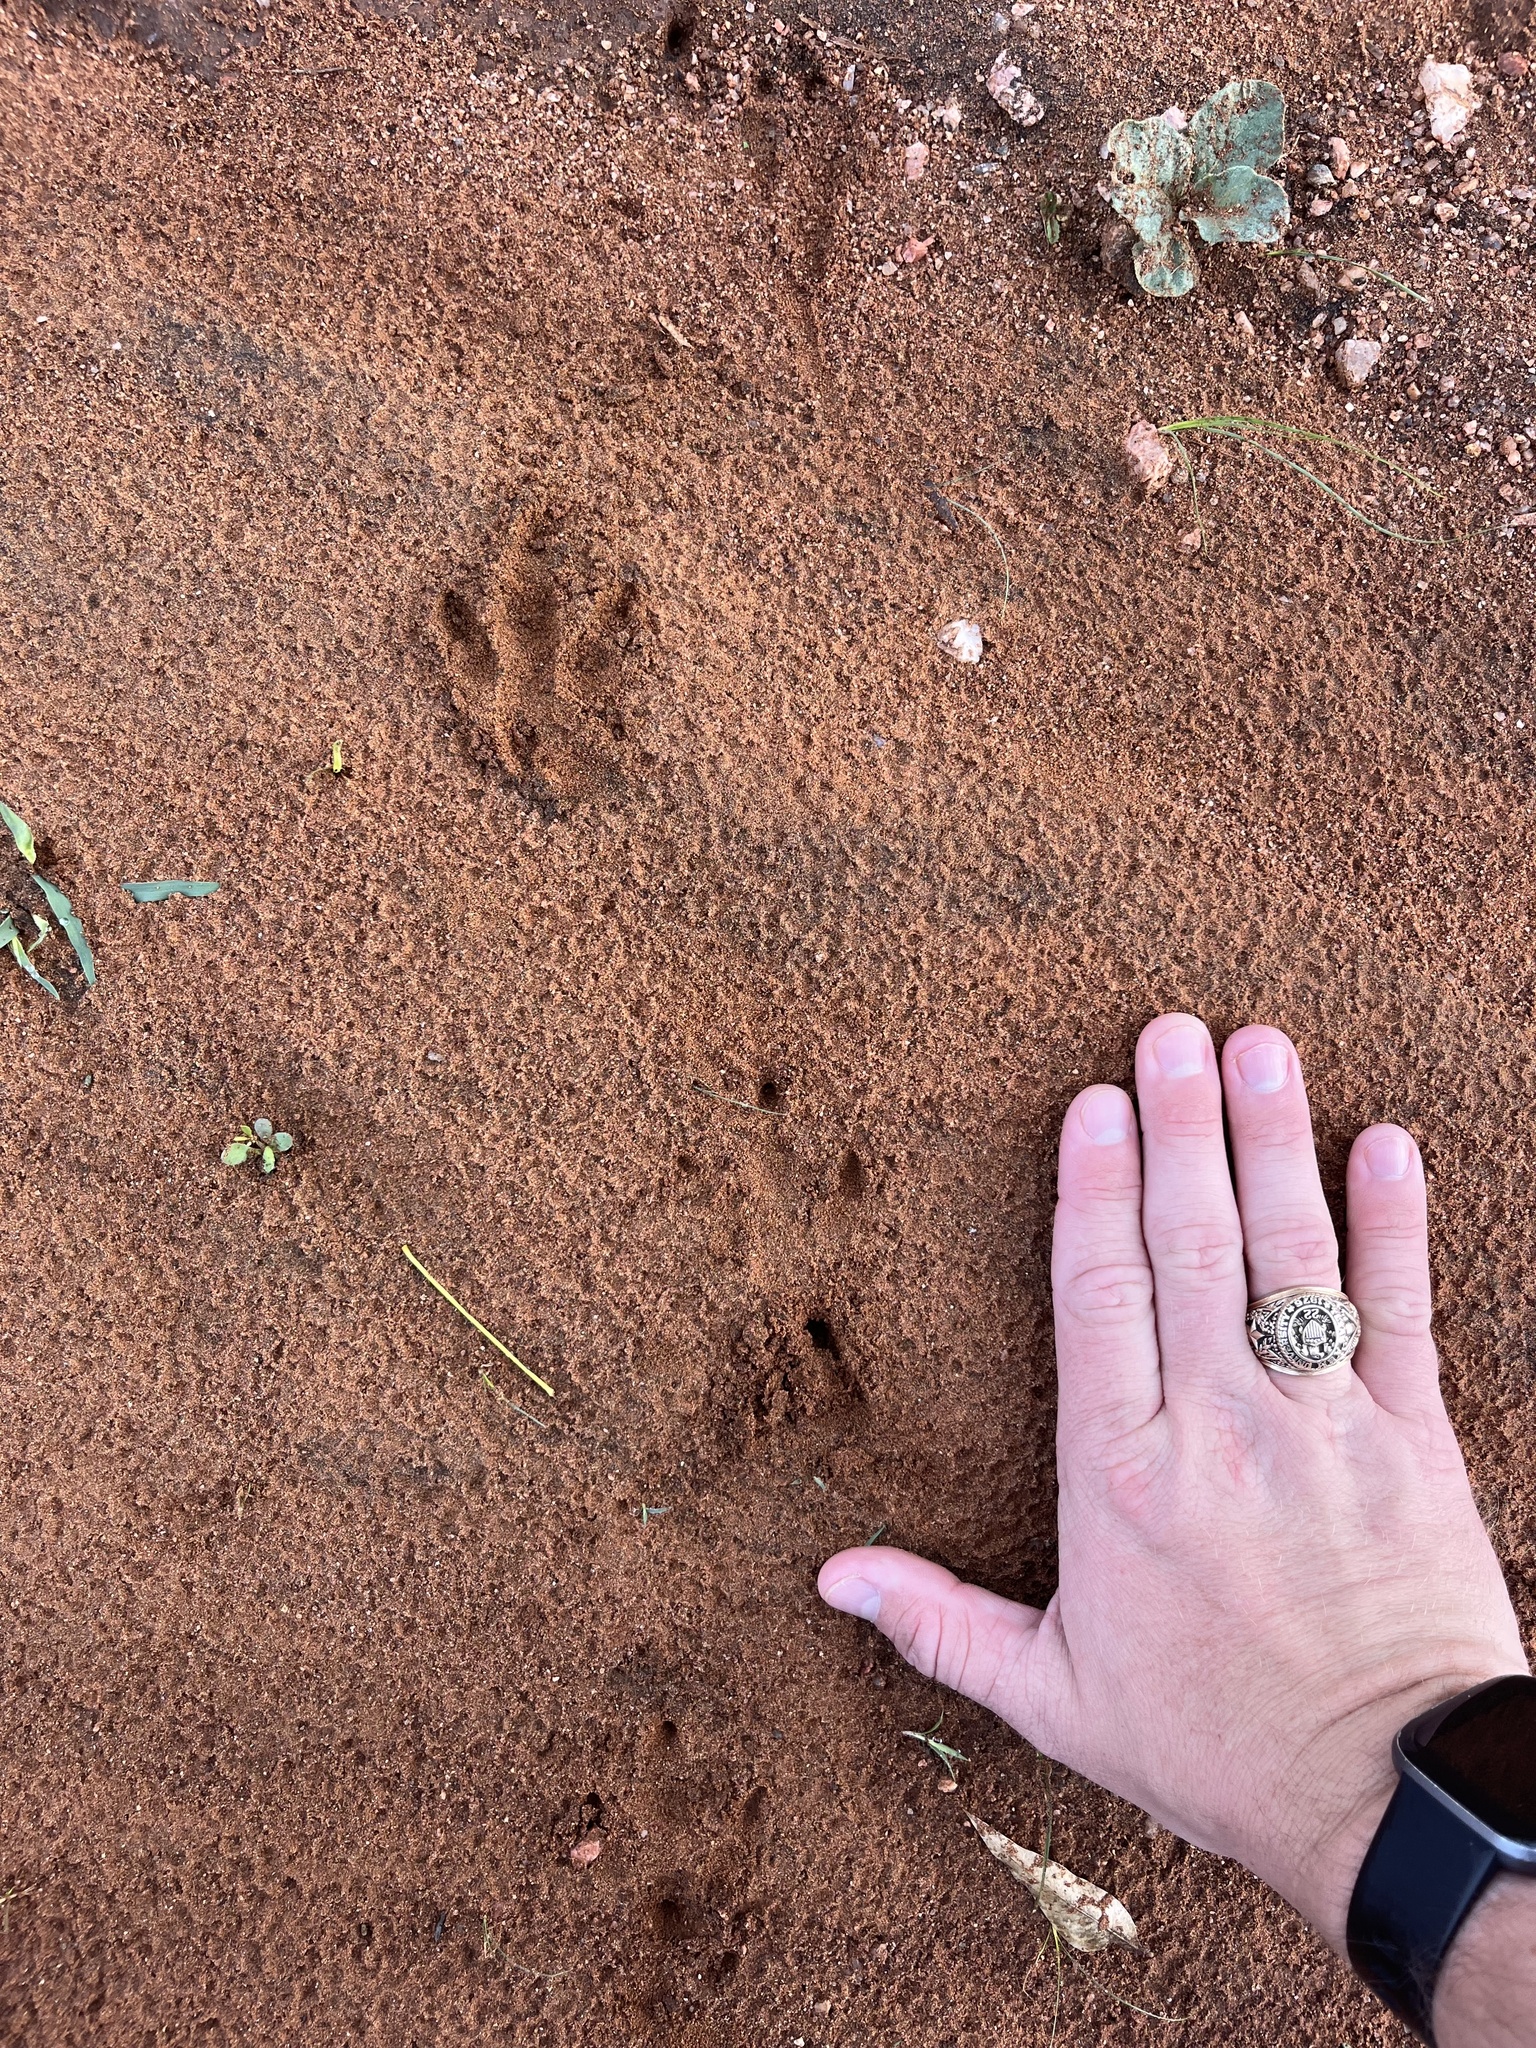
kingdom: Animalia
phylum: Chordata
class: Mammalia
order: Cingulata
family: Dasypodidae
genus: Dasypus
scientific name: Dasypus novemcinctus
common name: Nine-banded armadillo
